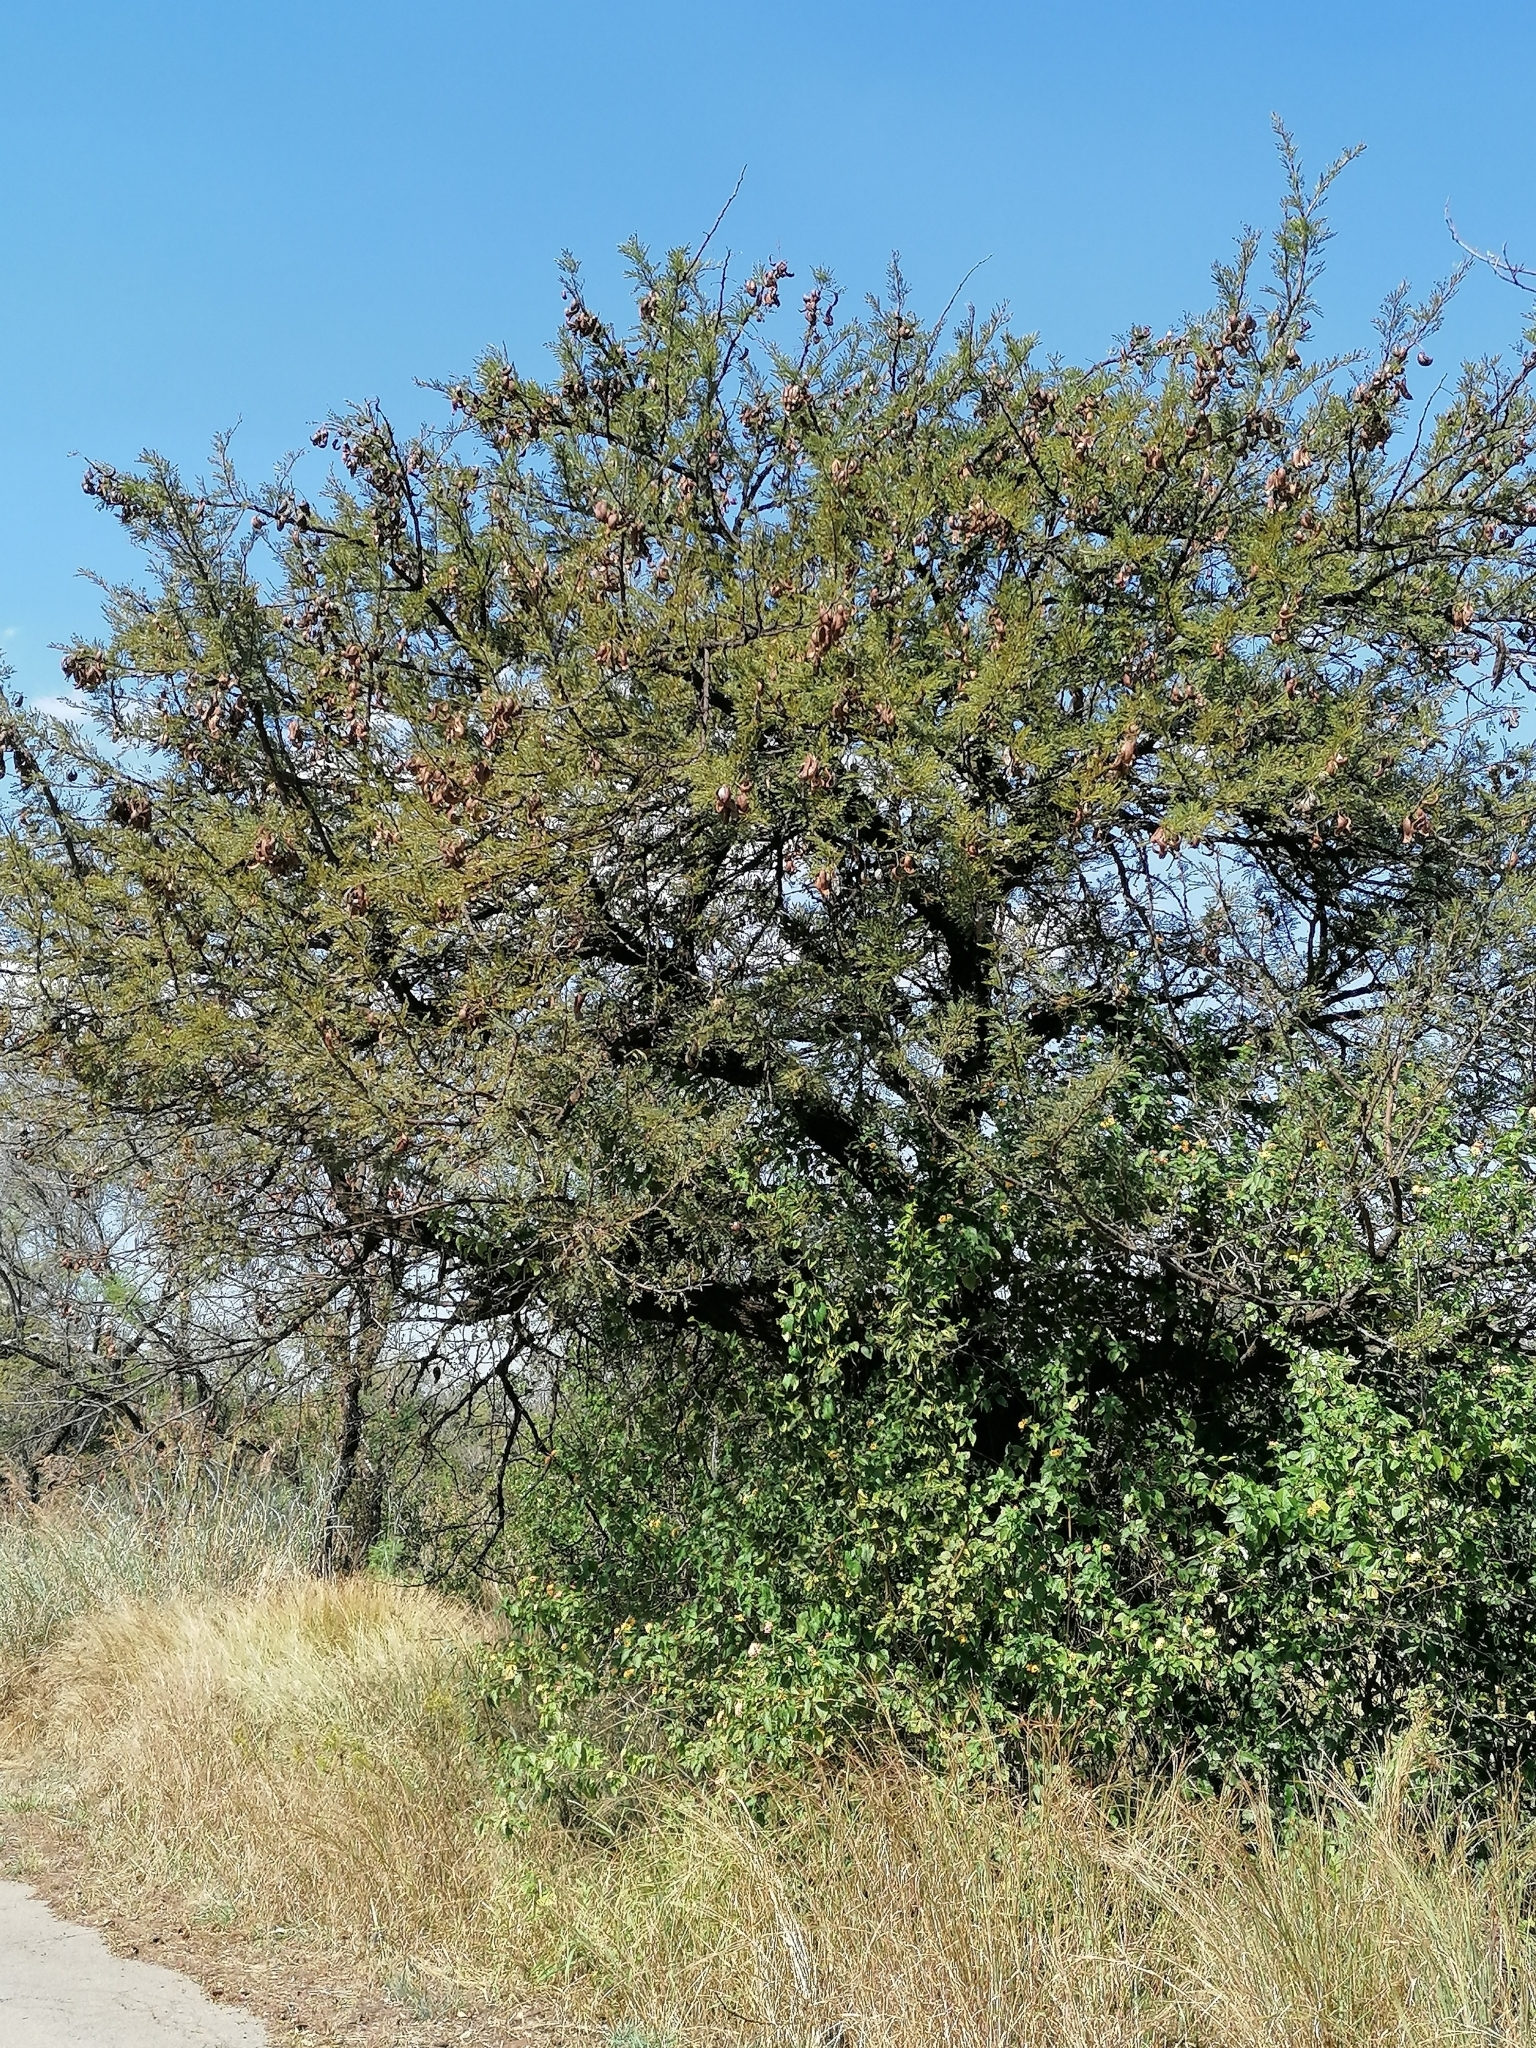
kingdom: Plantae
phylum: Tracheophyta
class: Magnoliopsida
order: Fabales
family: Fabaceae
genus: Vachellia
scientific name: Vachellia robusta
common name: Ankle thorn
